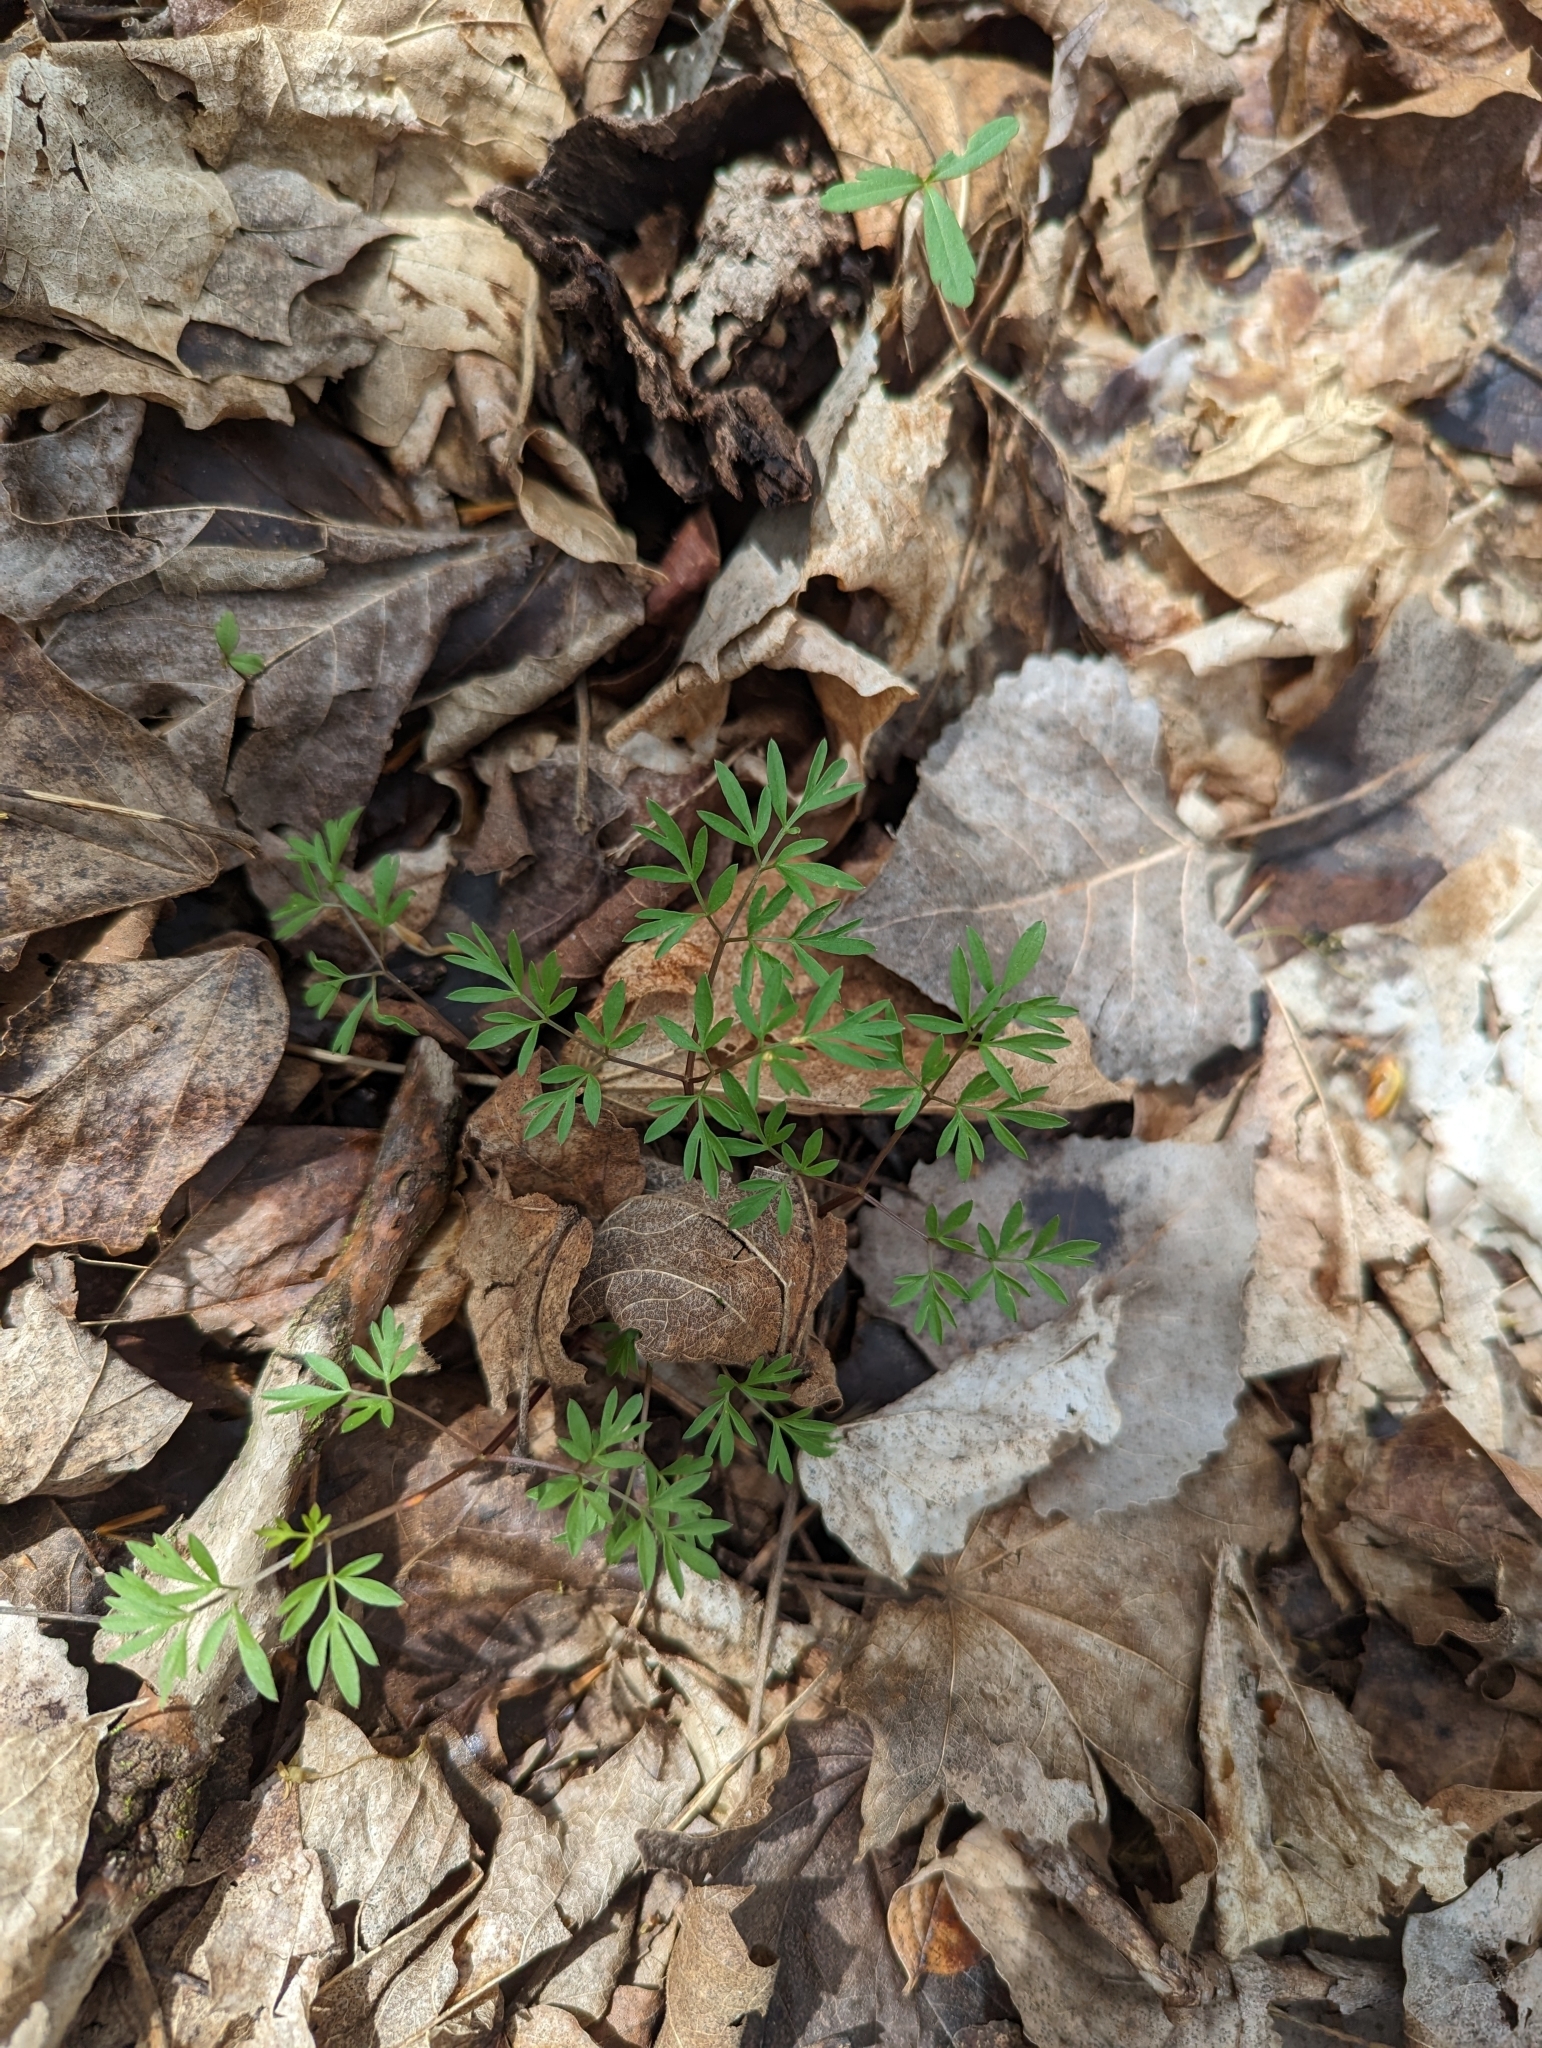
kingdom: Plantae
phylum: Tracheophyta
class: Magnoliopsida
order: Apiales
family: Apiaceae
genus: Erigenia
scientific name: Erigenia bulbosa
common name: Pepper-and-salt
